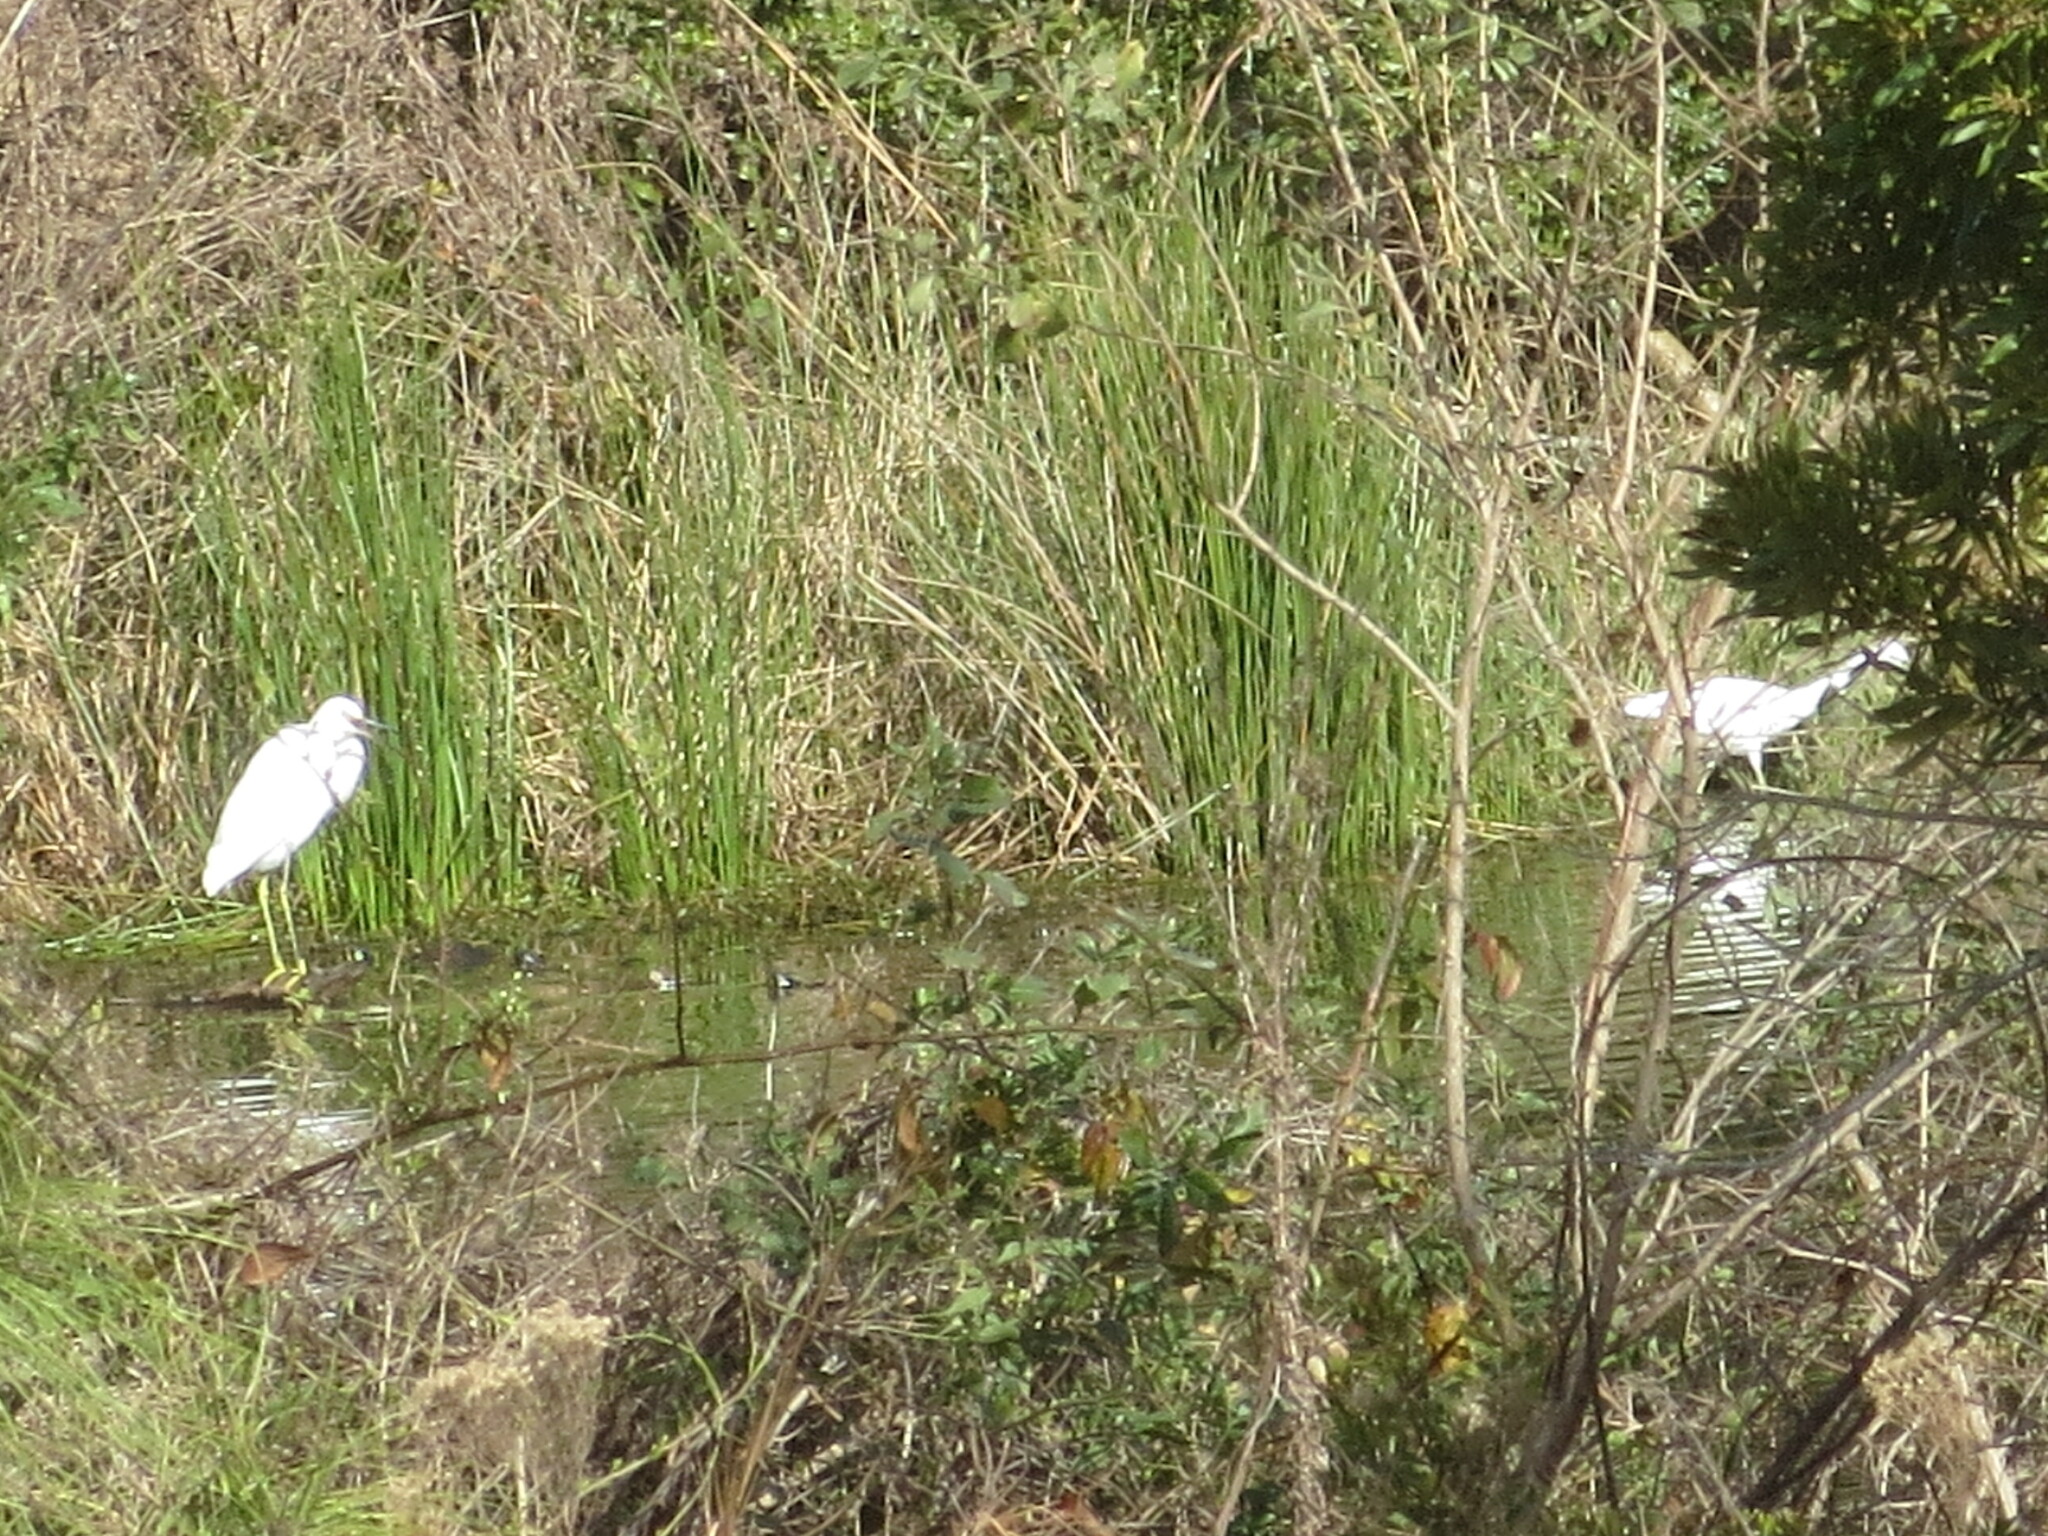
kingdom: Animalia
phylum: Chordata
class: Aves
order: Pelecaniformes
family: Ardeidae
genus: Egretta
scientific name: Egretta thula
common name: Snowy egret
